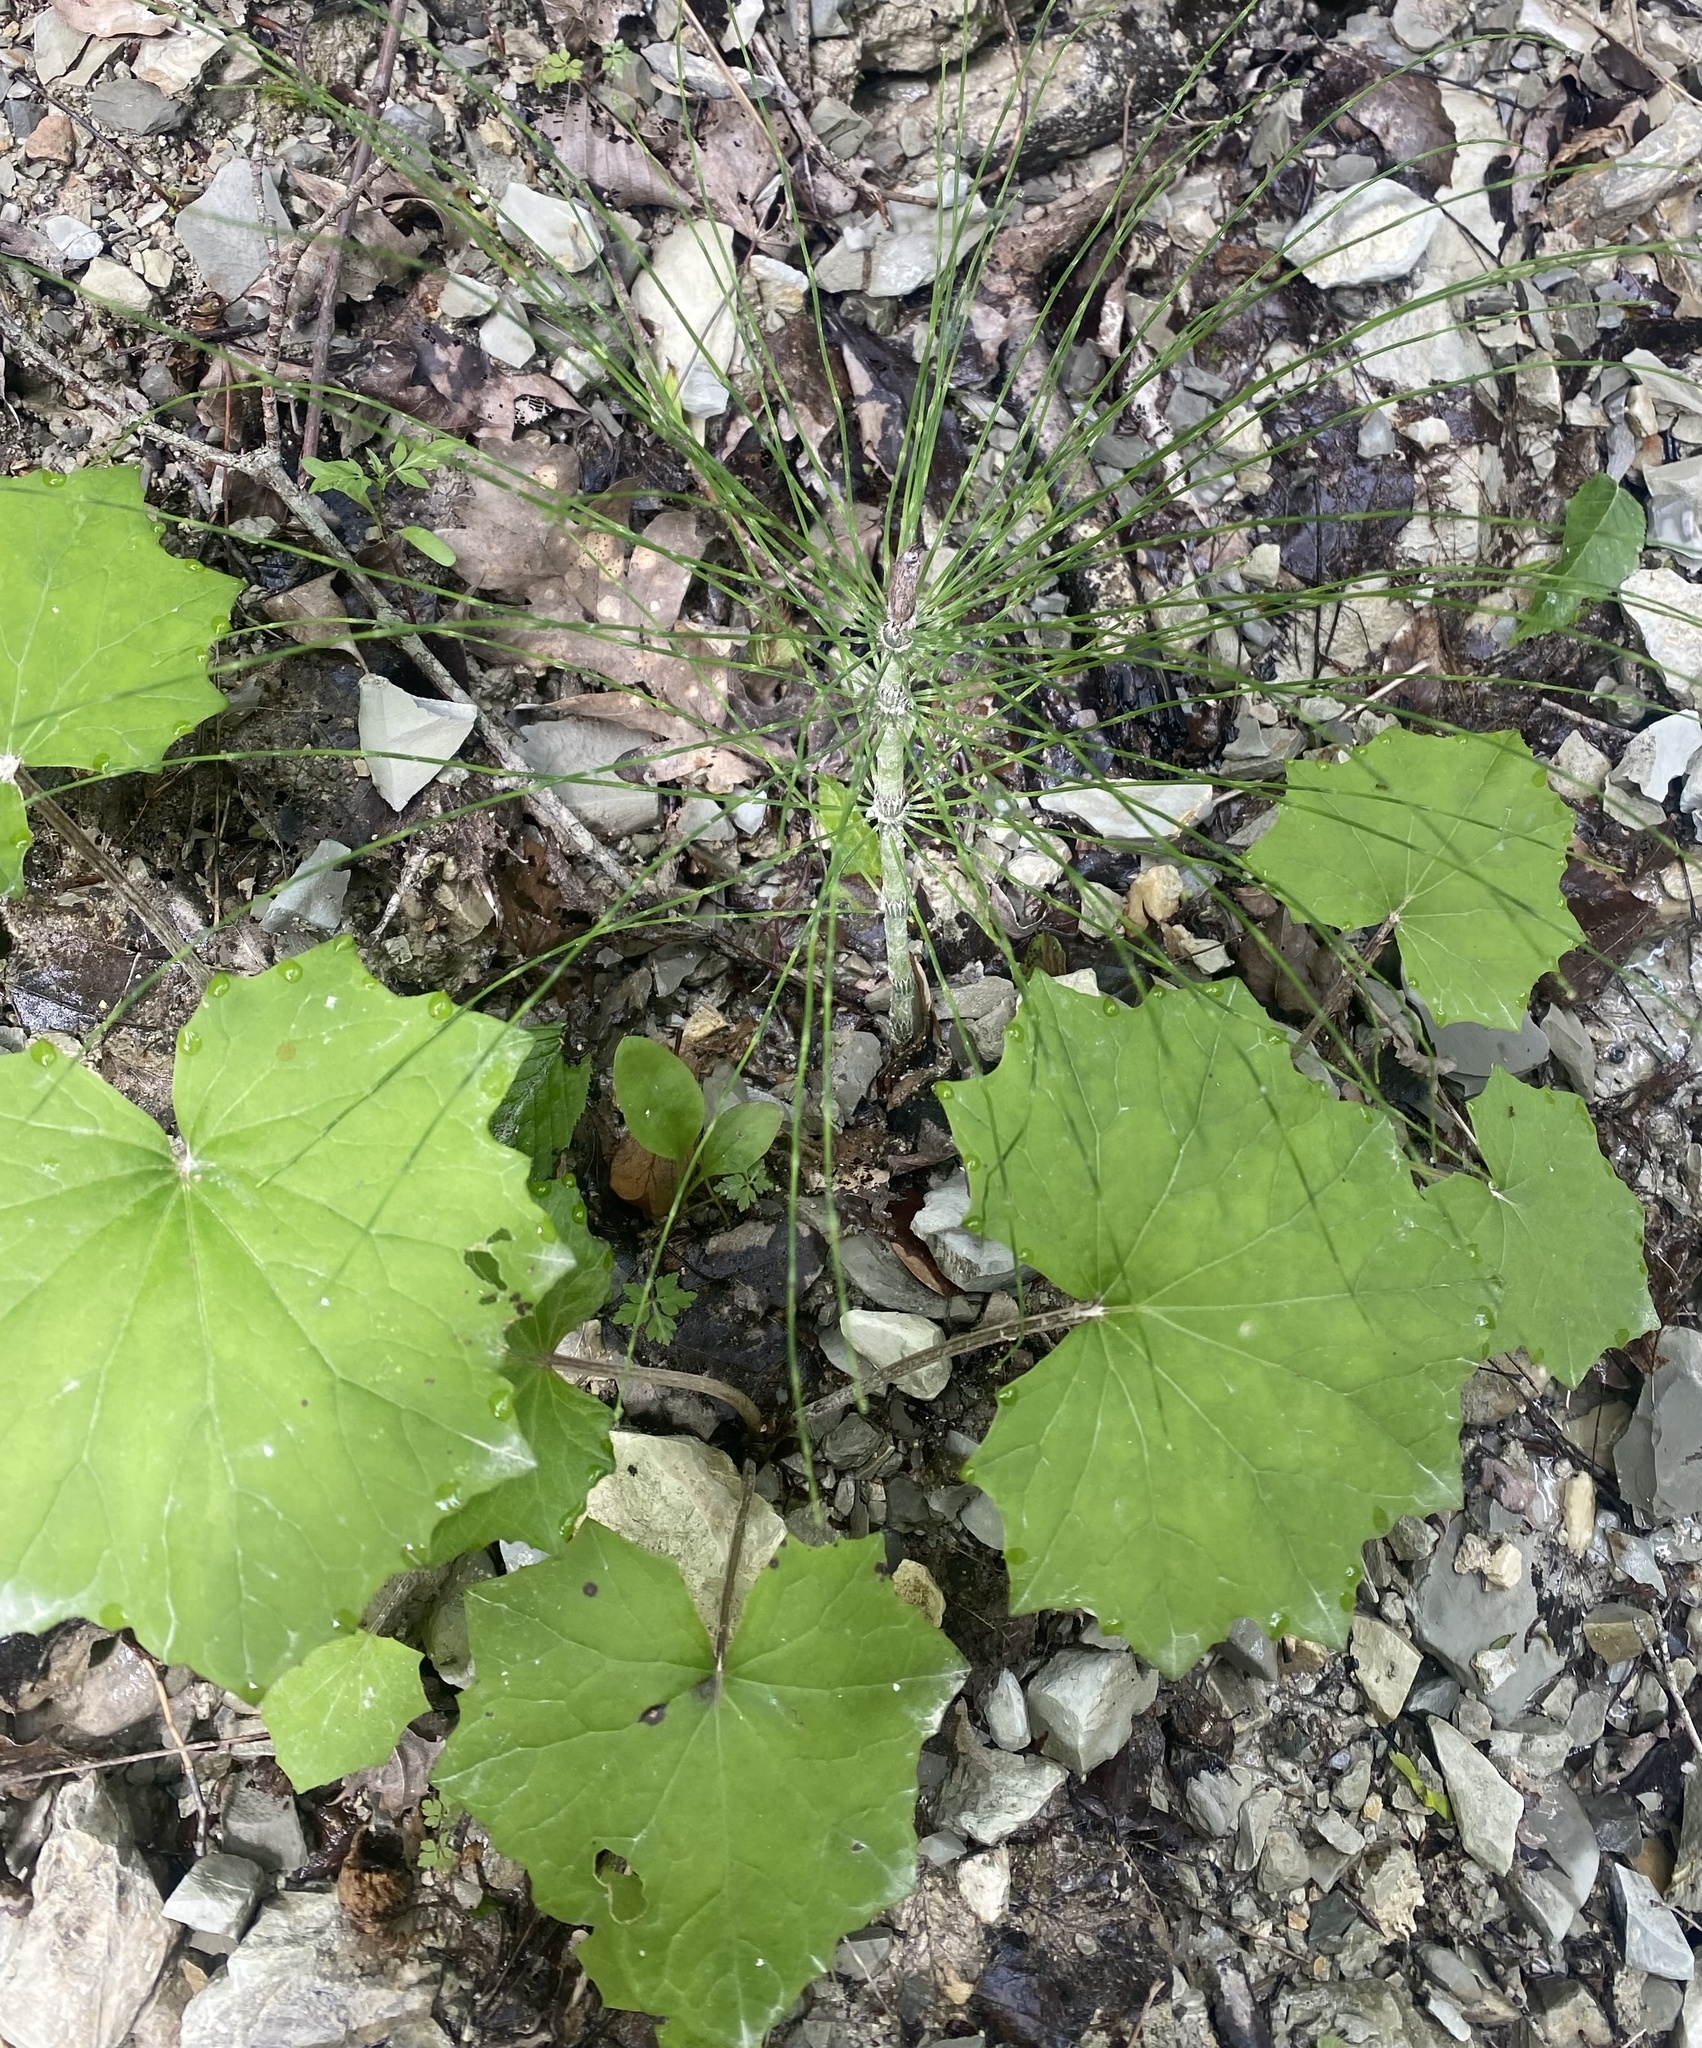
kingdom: Plantae
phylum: Tracheophyta
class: Magnoliopsida
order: Asterales
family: Asteraceae
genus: Tussilago
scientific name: Tussilago farfara
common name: Coltsfoot
